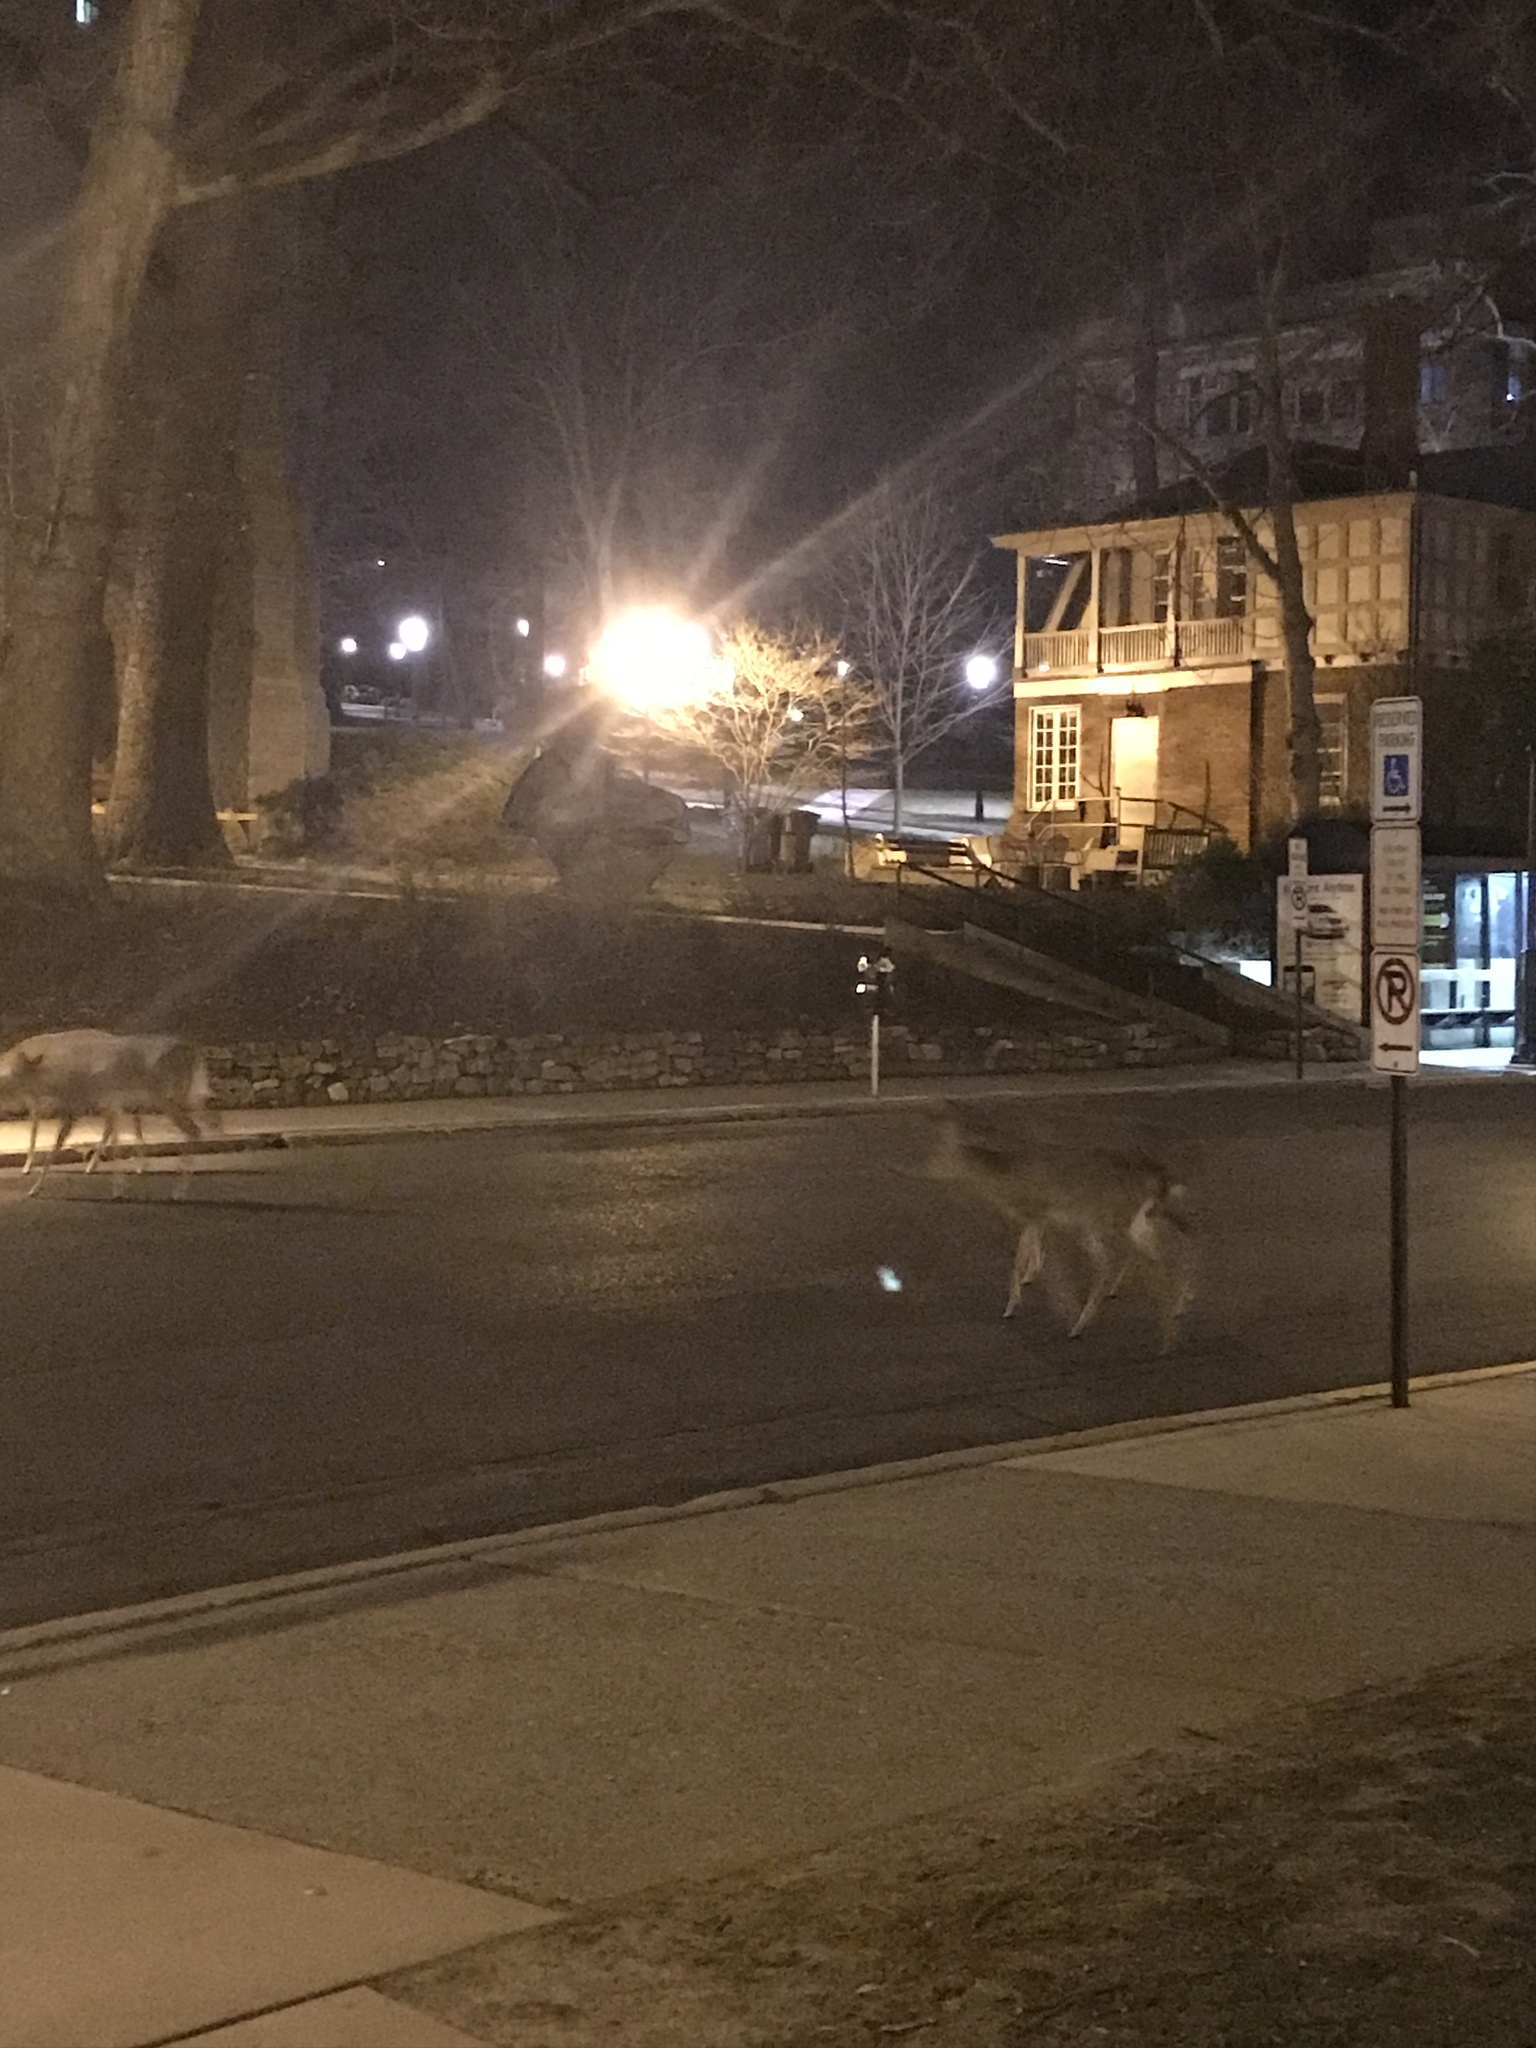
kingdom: Animalia
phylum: Chordata
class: Mammalia
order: Artiodactyla
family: Cervidae
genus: Odocoileus
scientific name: Odocoileus virginianus
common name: White-tailed deer
